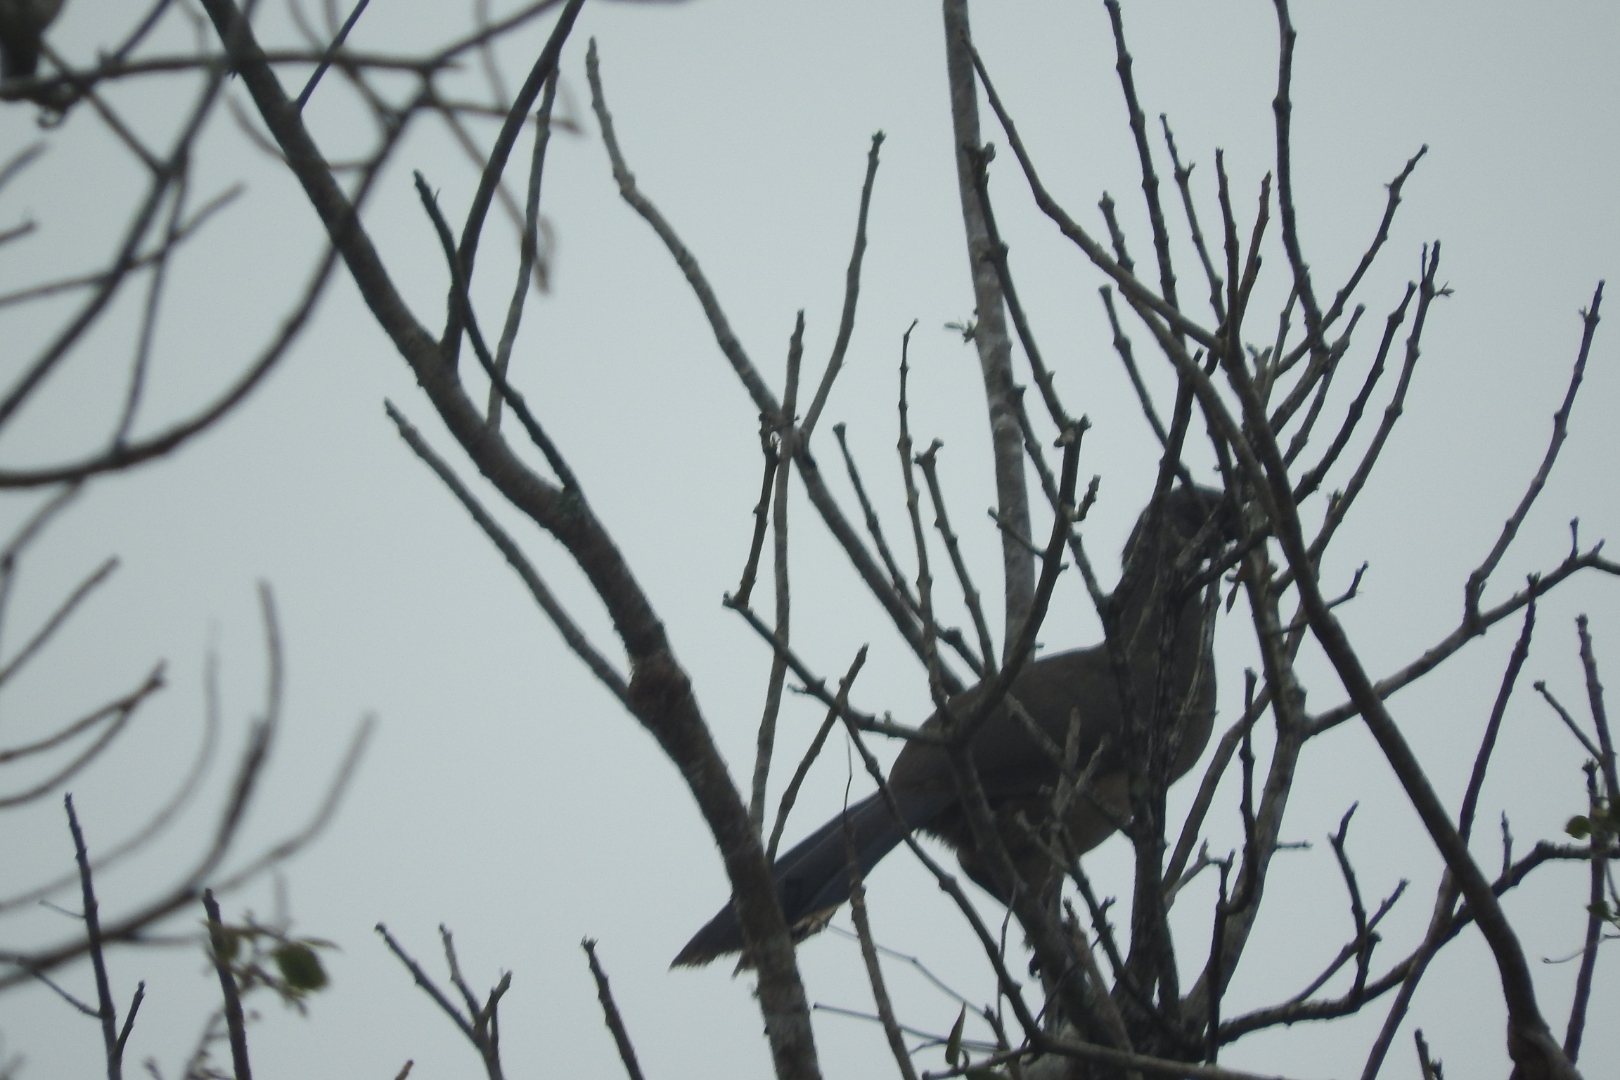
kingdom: Animalia
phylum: Chordata
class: Aves
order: Galliformes
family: Cracidae
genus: Ortalis
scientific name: Ortalis vetula
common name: Plain chachalaca
